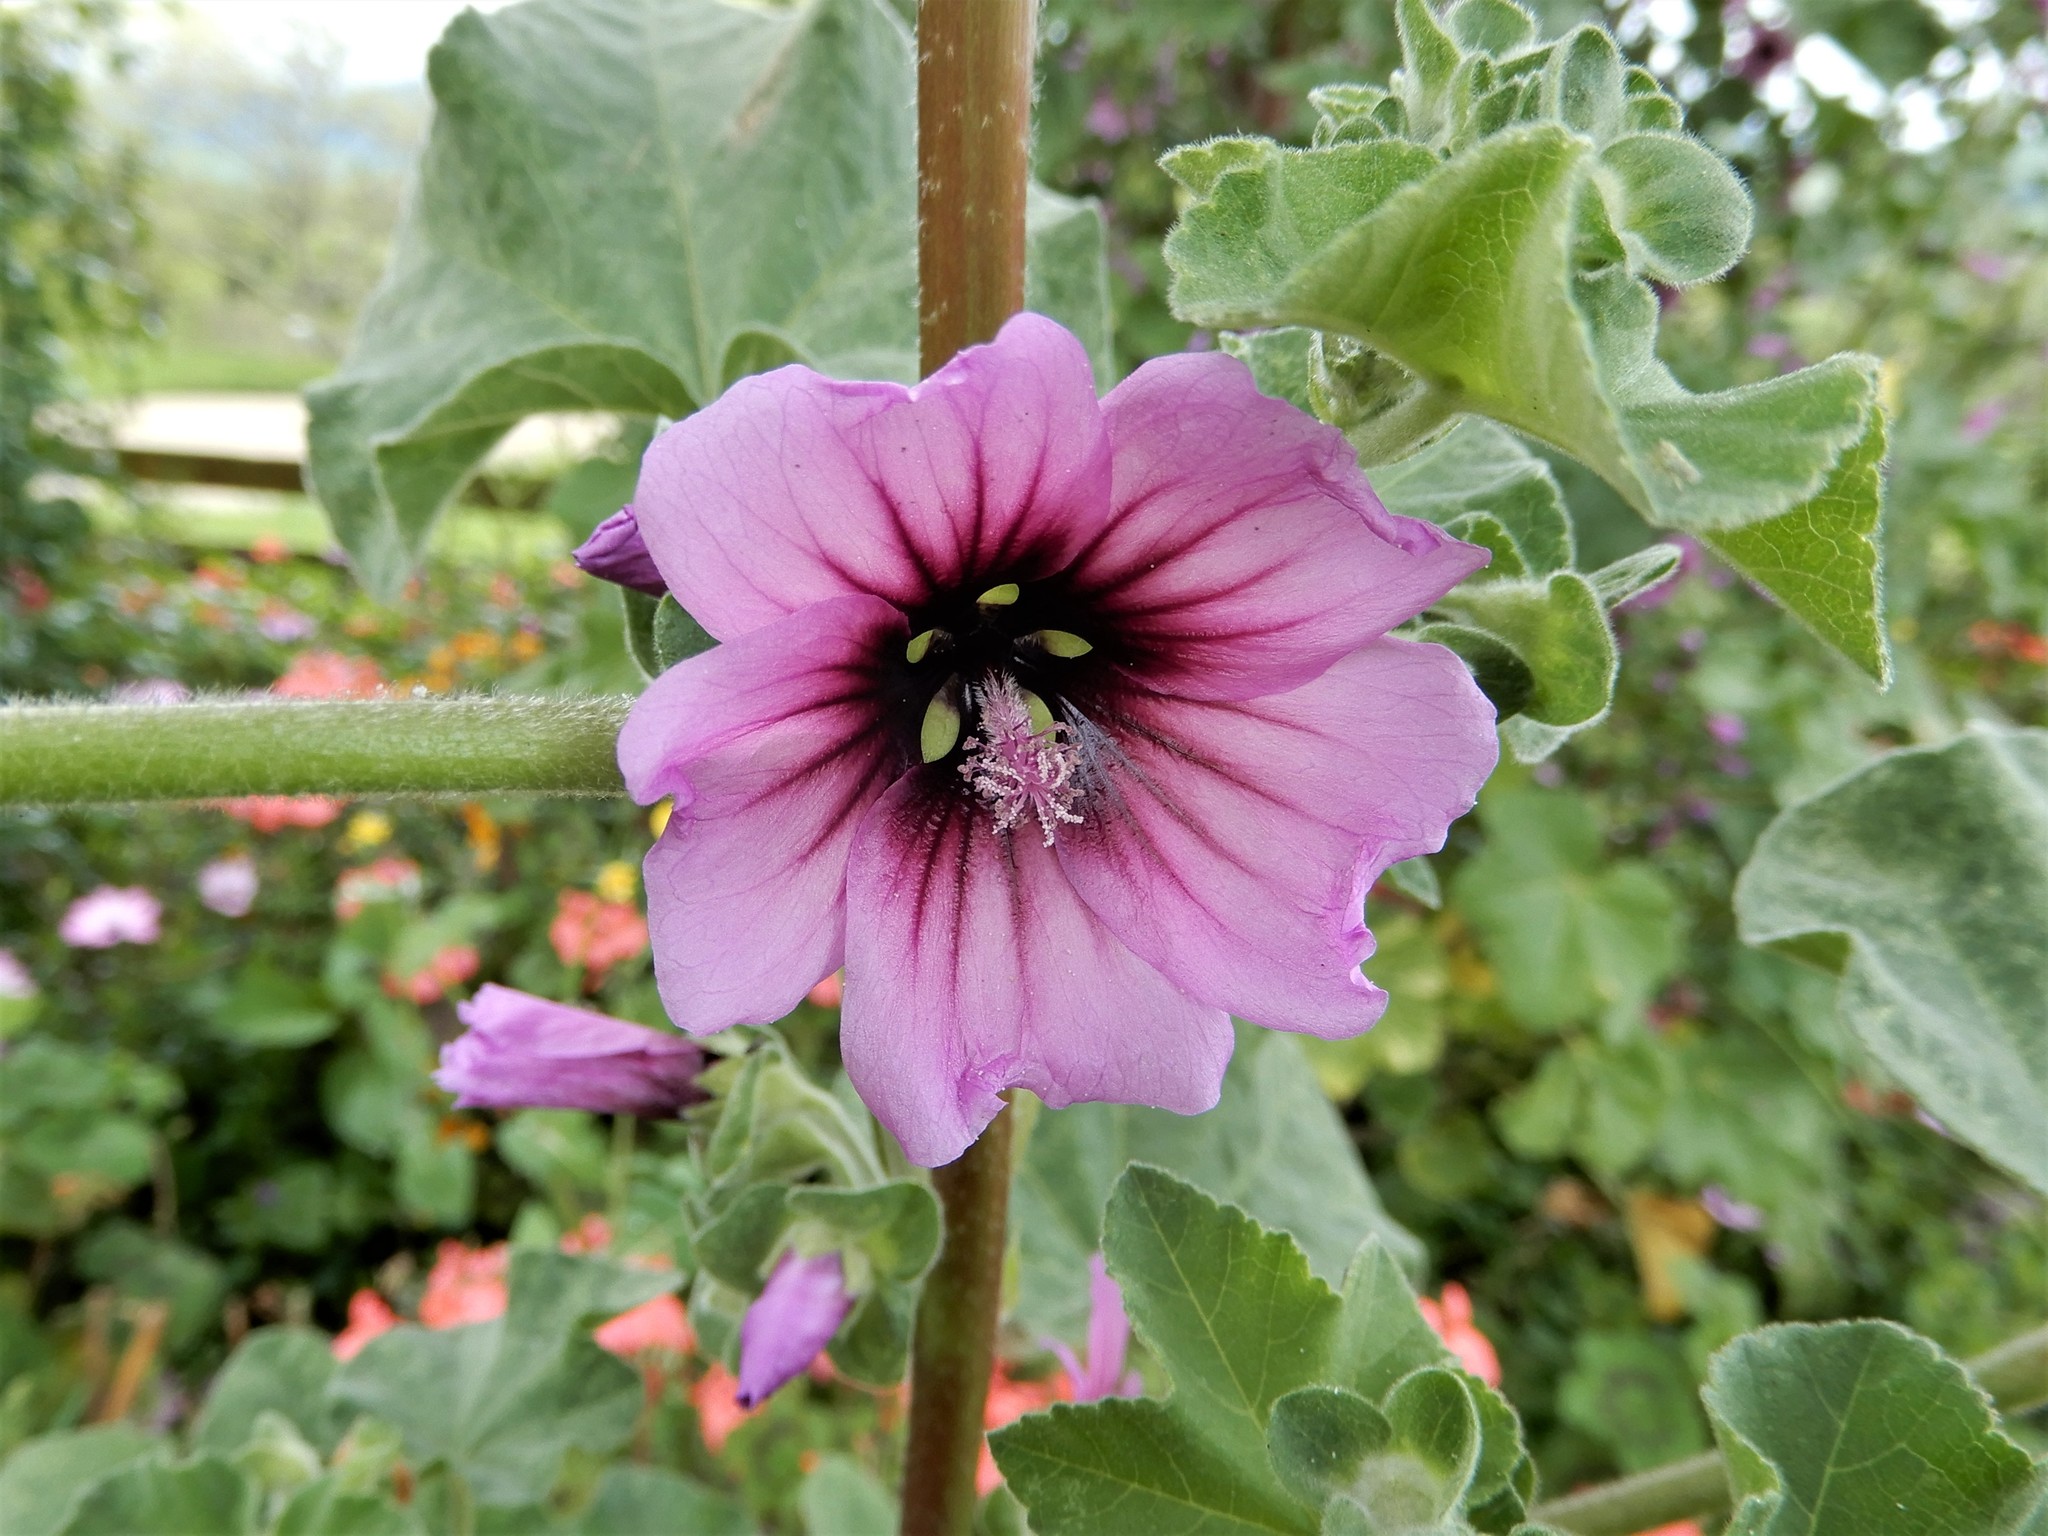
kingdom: Plantae
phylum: Tracheophyta
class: Magnoliopsida
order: Malvales
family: Malvaceae
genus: Malva
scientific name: Malva arborea
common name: Tree mallow
